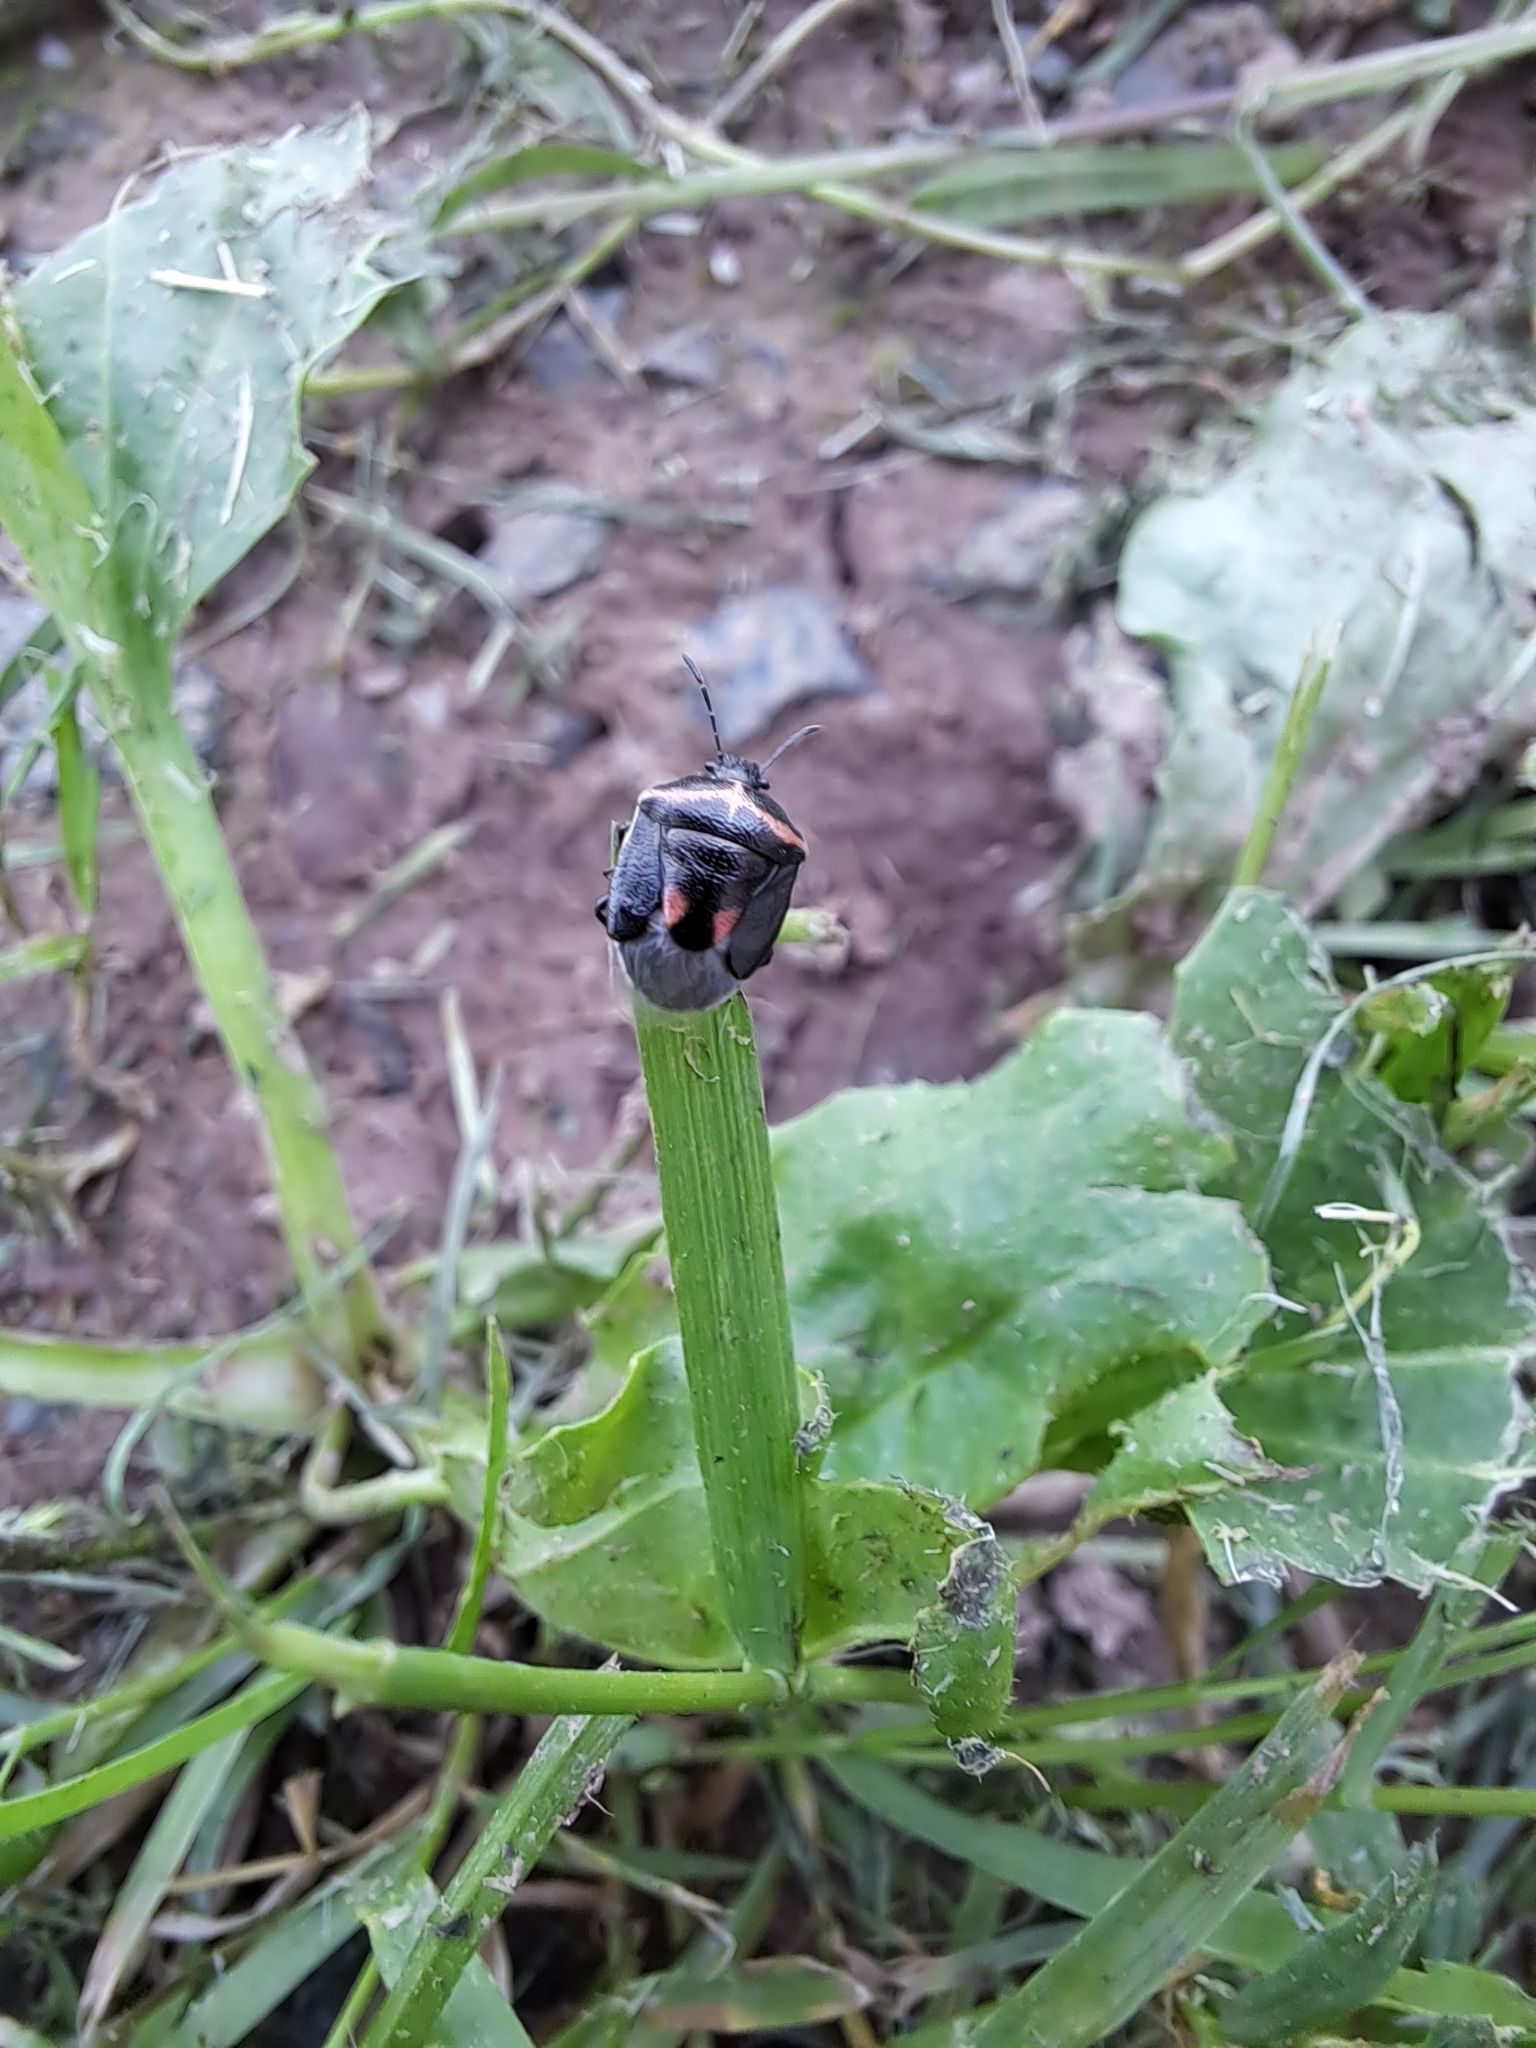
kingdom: Animalia
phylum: Arthropoda
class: Insecta
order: Hemiptera
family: Pentatomidae
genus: Cosmopepla
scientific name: Cosmopepla lintneriana
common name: Twice-stabbed stink bug
